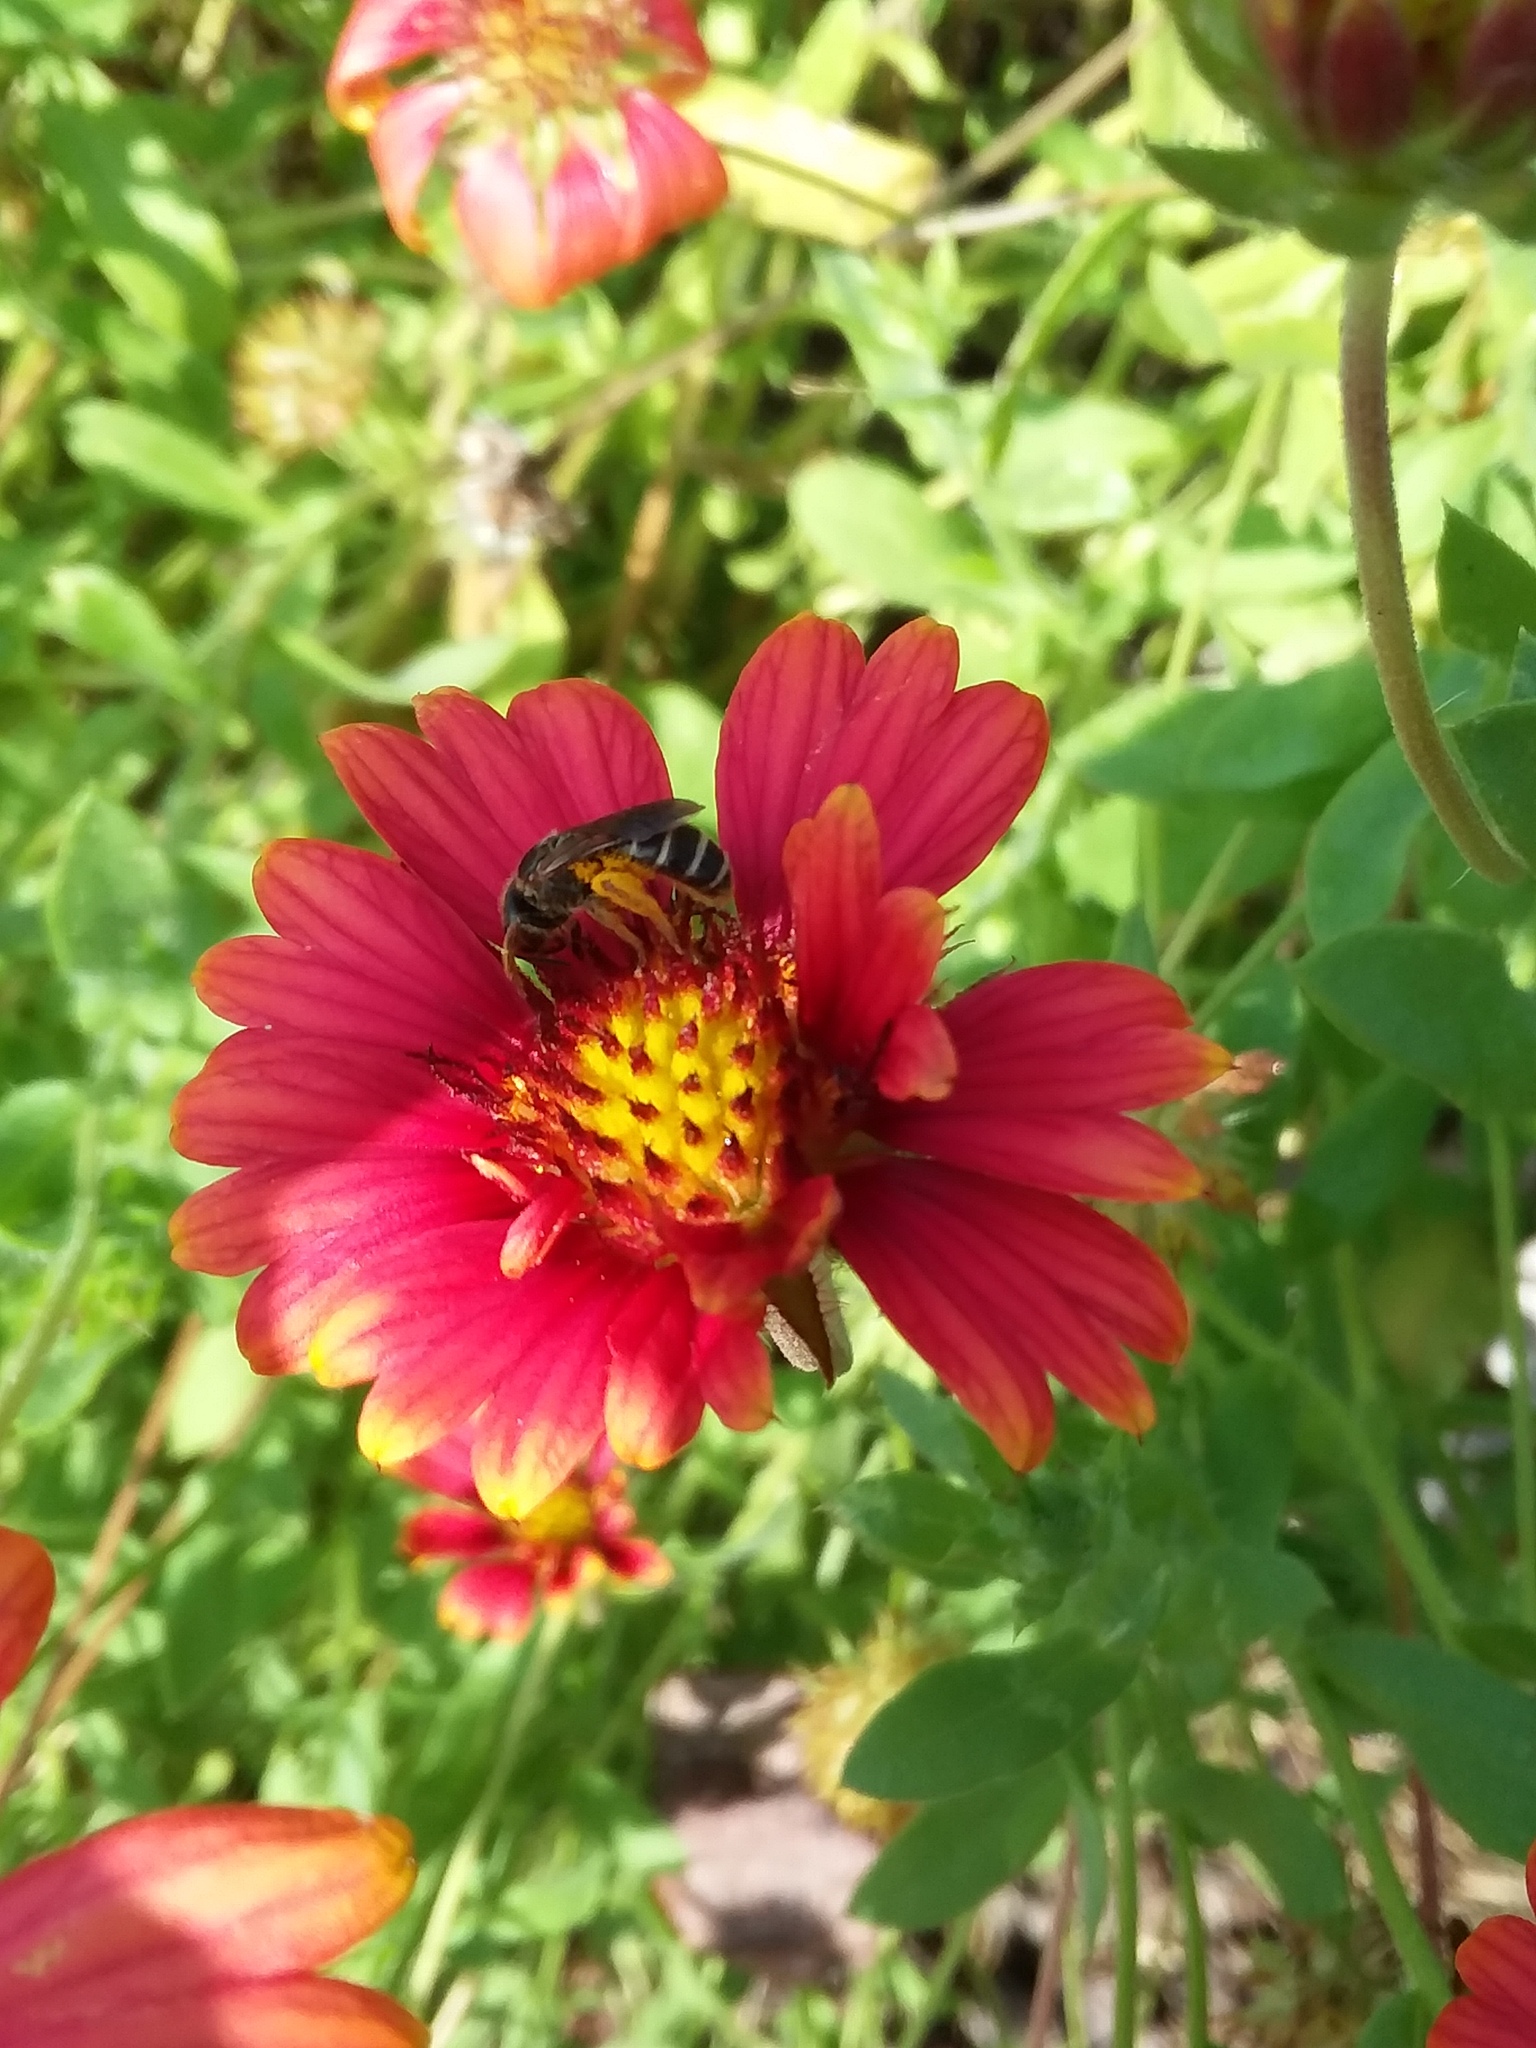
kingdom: Animalia
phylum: Arthropoda
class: Insecta
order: Hymenoptera
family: Halictidae
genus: Halictus
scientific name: Halictus poeyi
